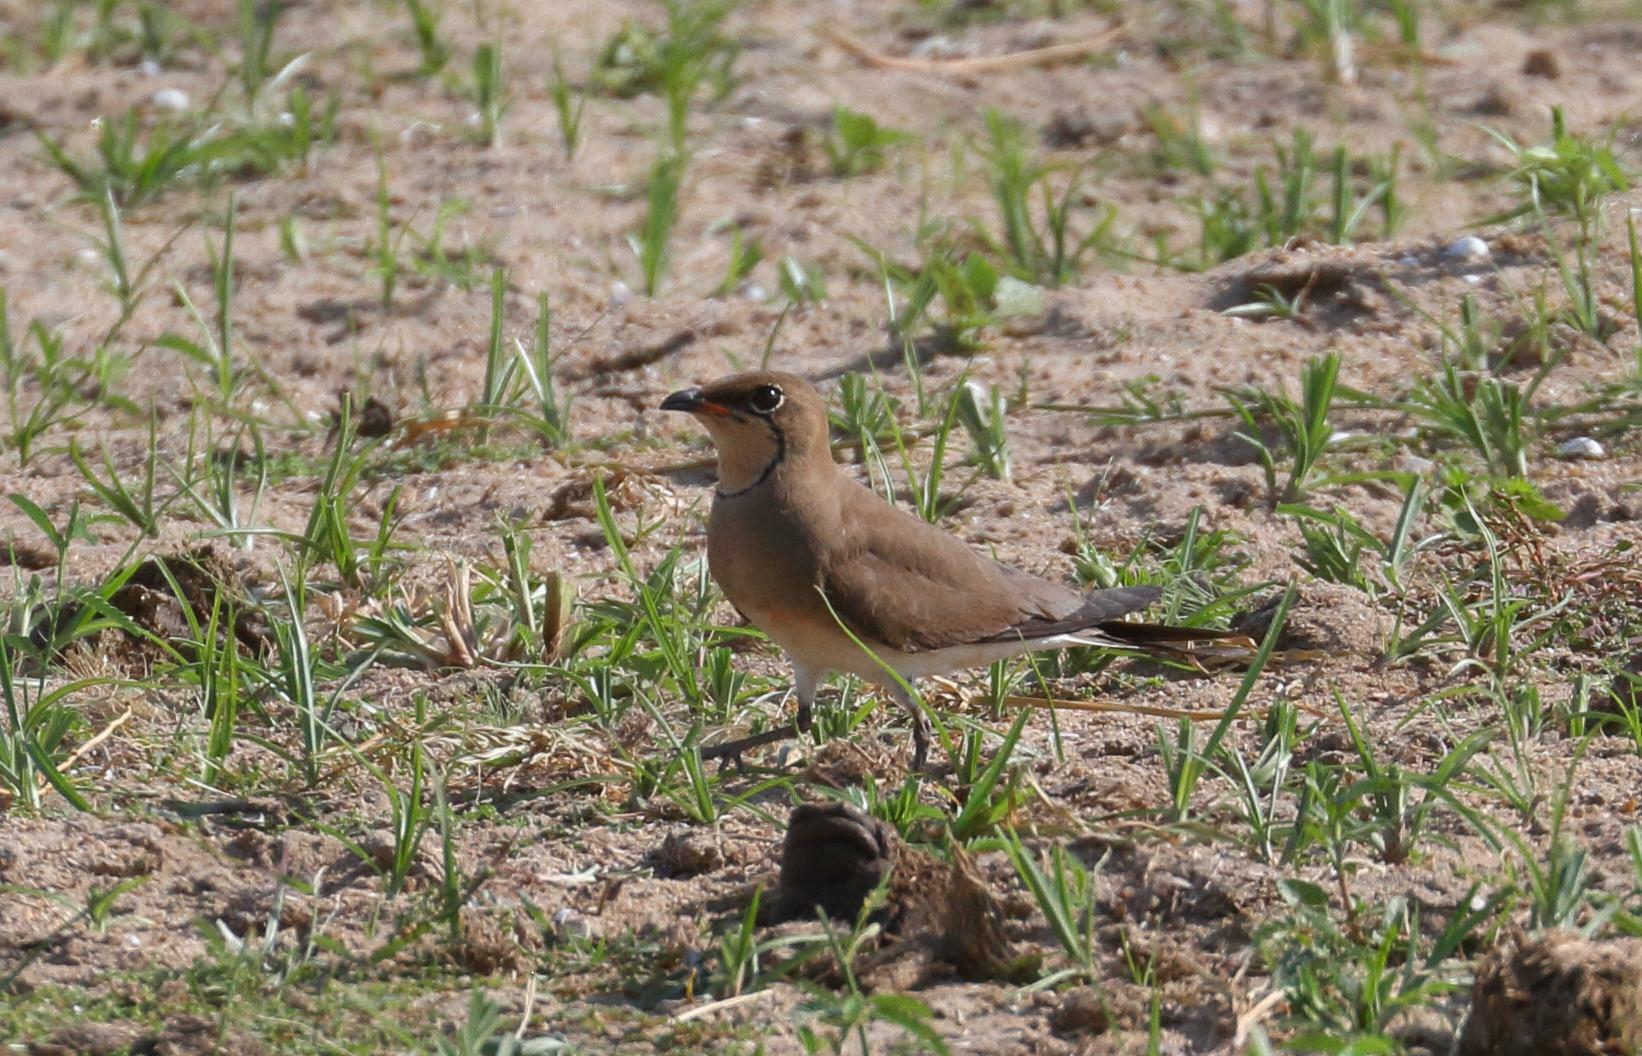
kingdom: Animalia
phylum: Chordata
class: Aves
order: Charadriiformes
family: Glareolidae
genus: Glareola
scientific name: Glareola pratincola
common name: Collared pratincole
